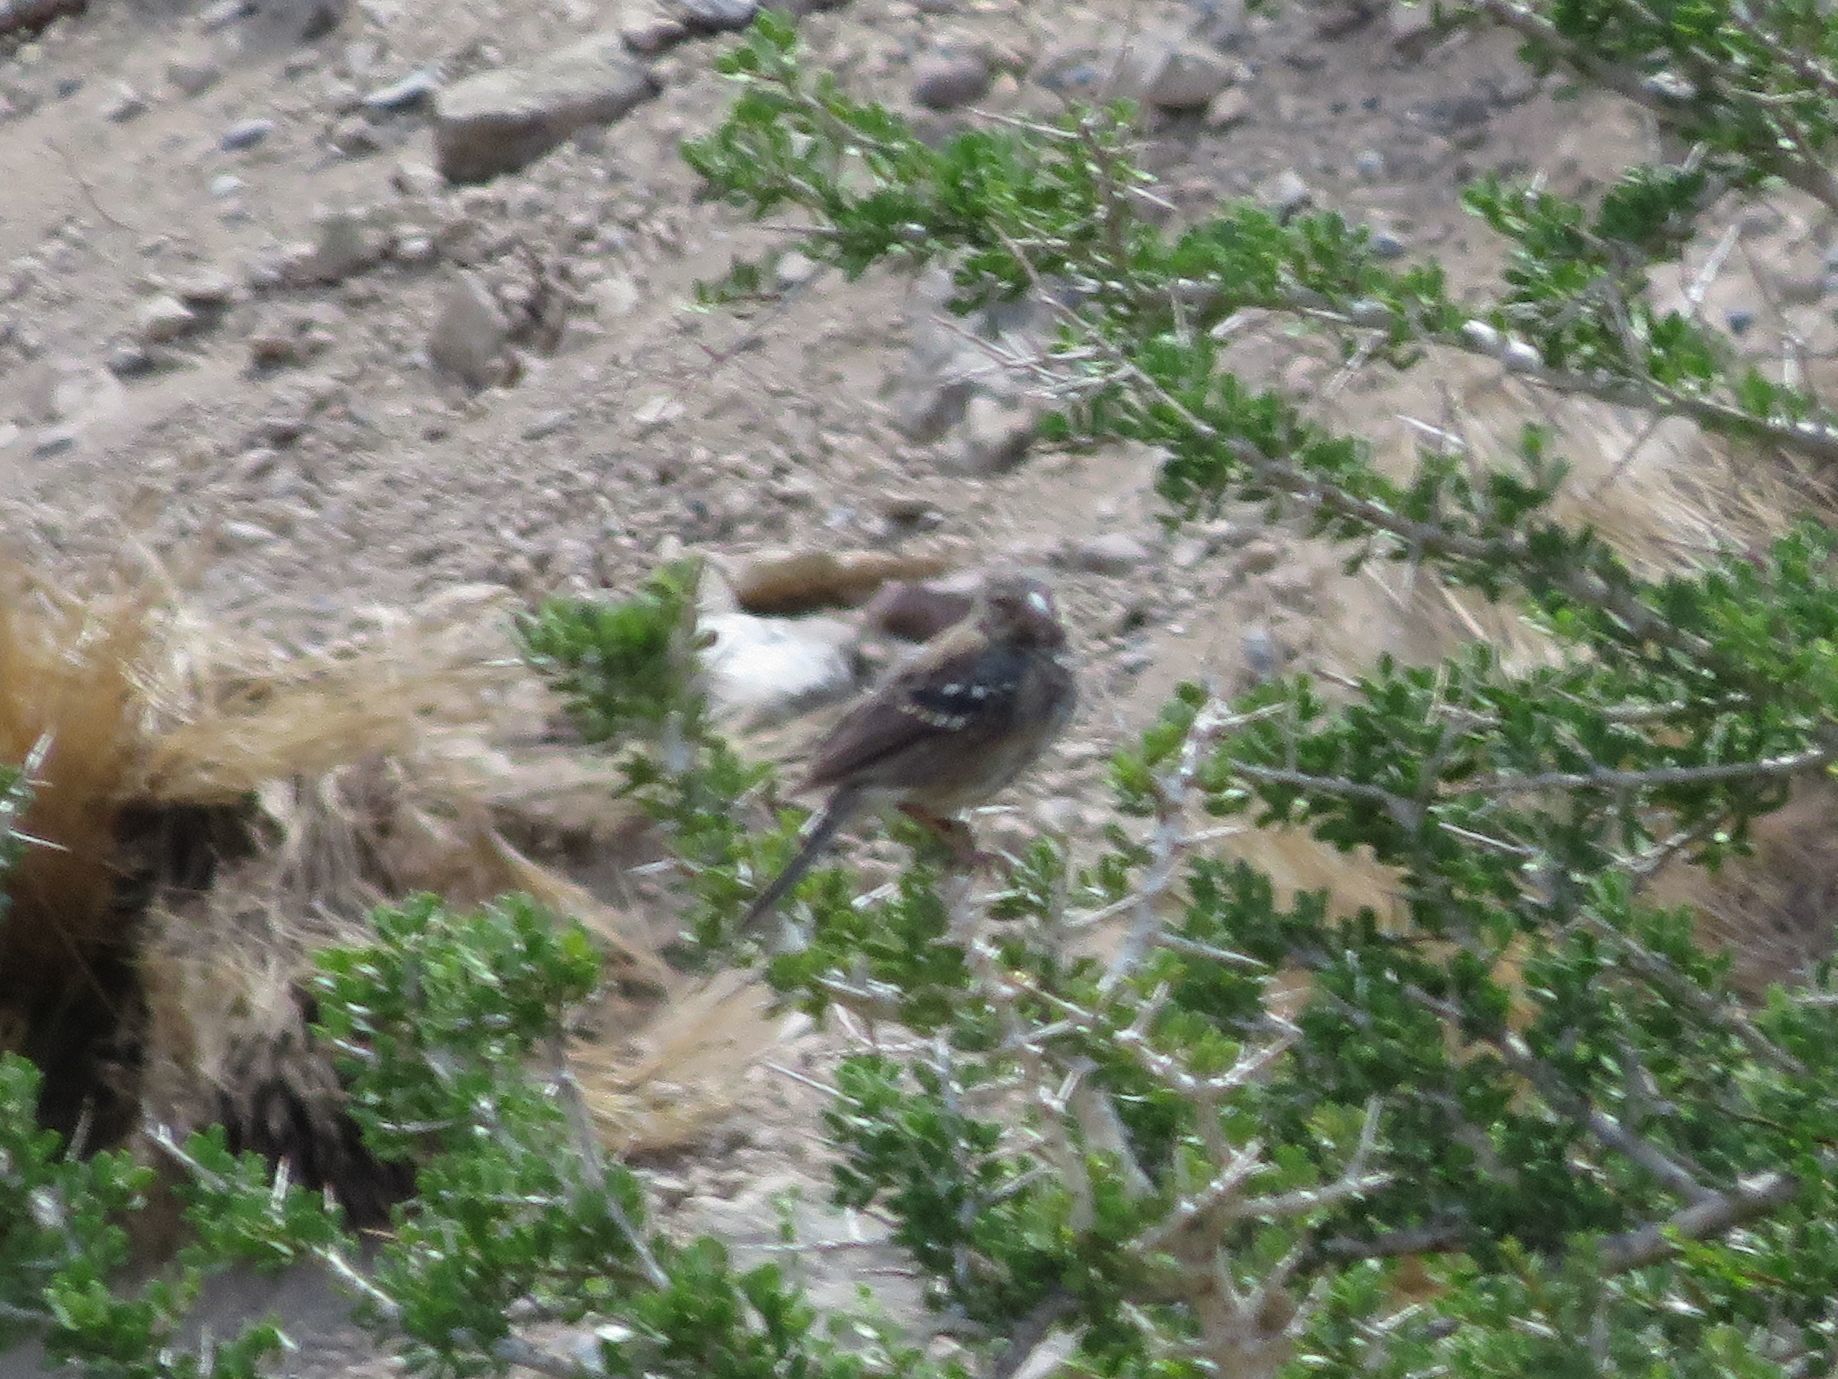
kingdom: Animalia
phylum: Chordata
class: Aves
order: Passeriformes
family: Thraupidae
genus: Rhopospina
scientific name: Rhopospina fruticeti
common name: Mourning sierra finch
